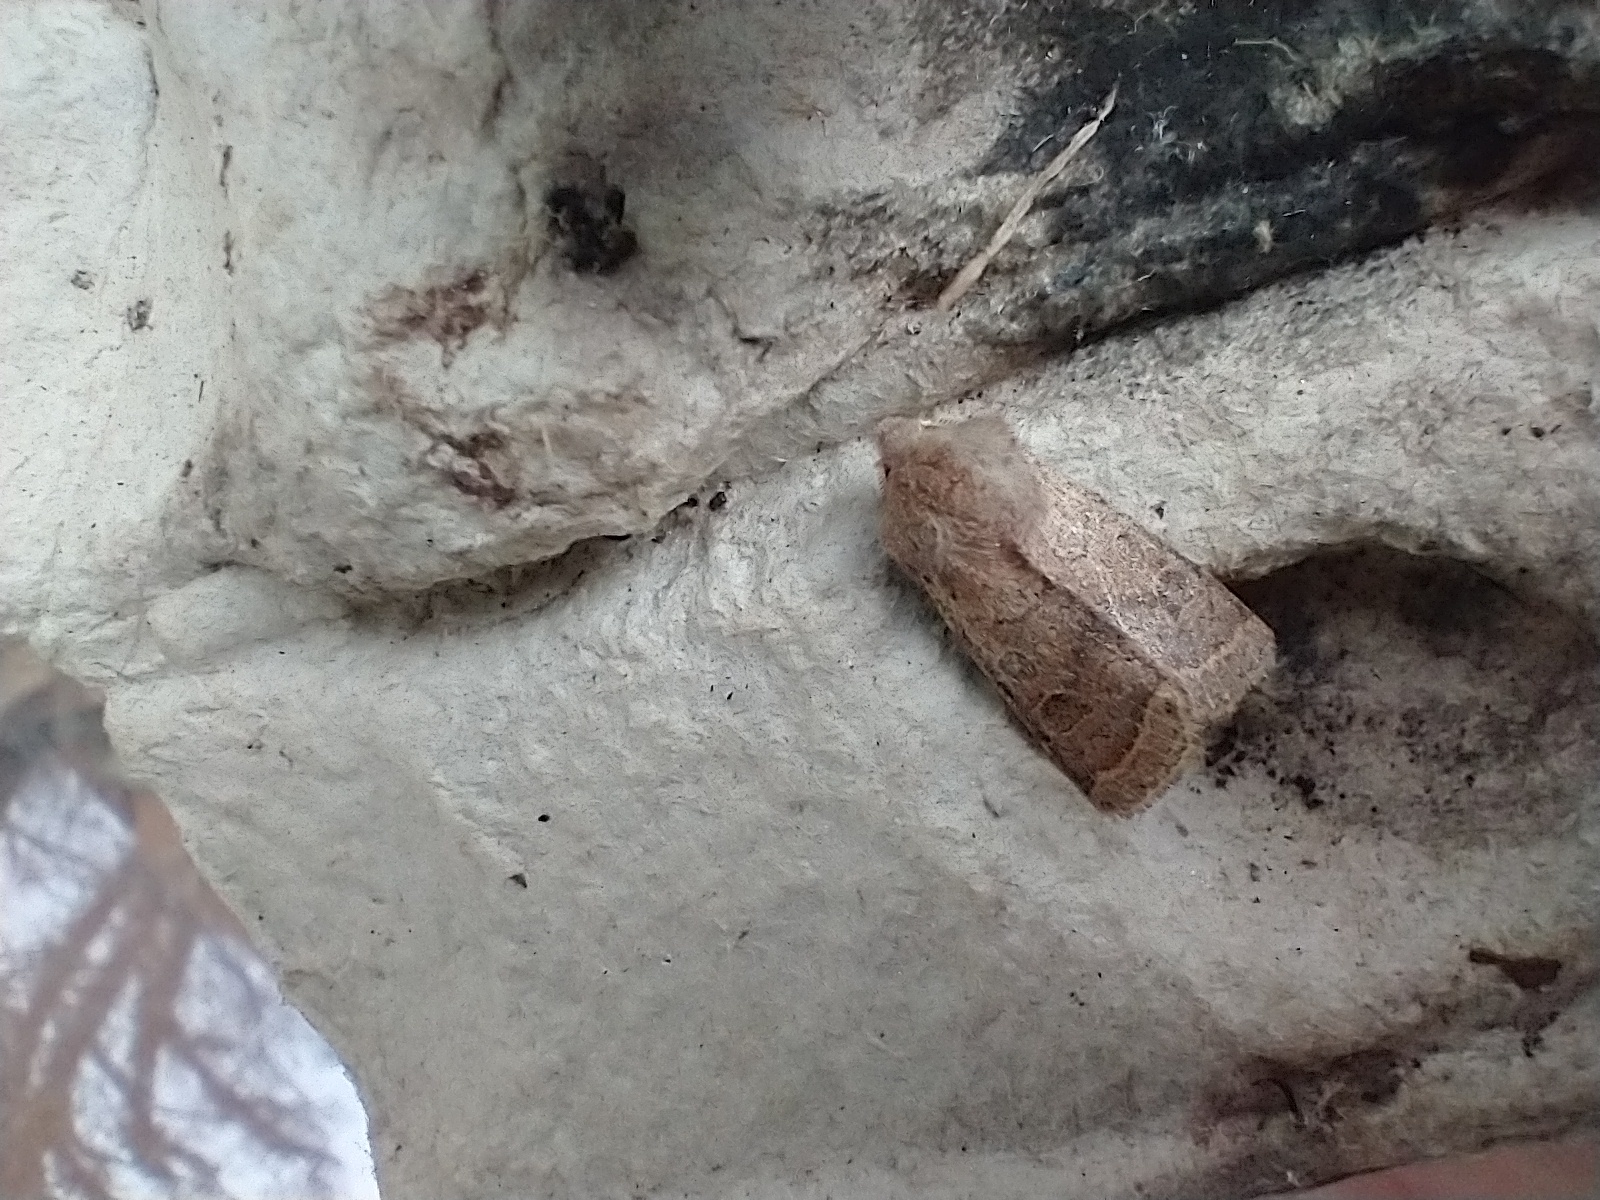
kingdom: Animalia
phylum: Arthropoda
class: Insecta
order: Lepidoptera
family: Noctuidae
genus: Orthosia
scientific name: Orthosia cerasi
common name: Common quaker
